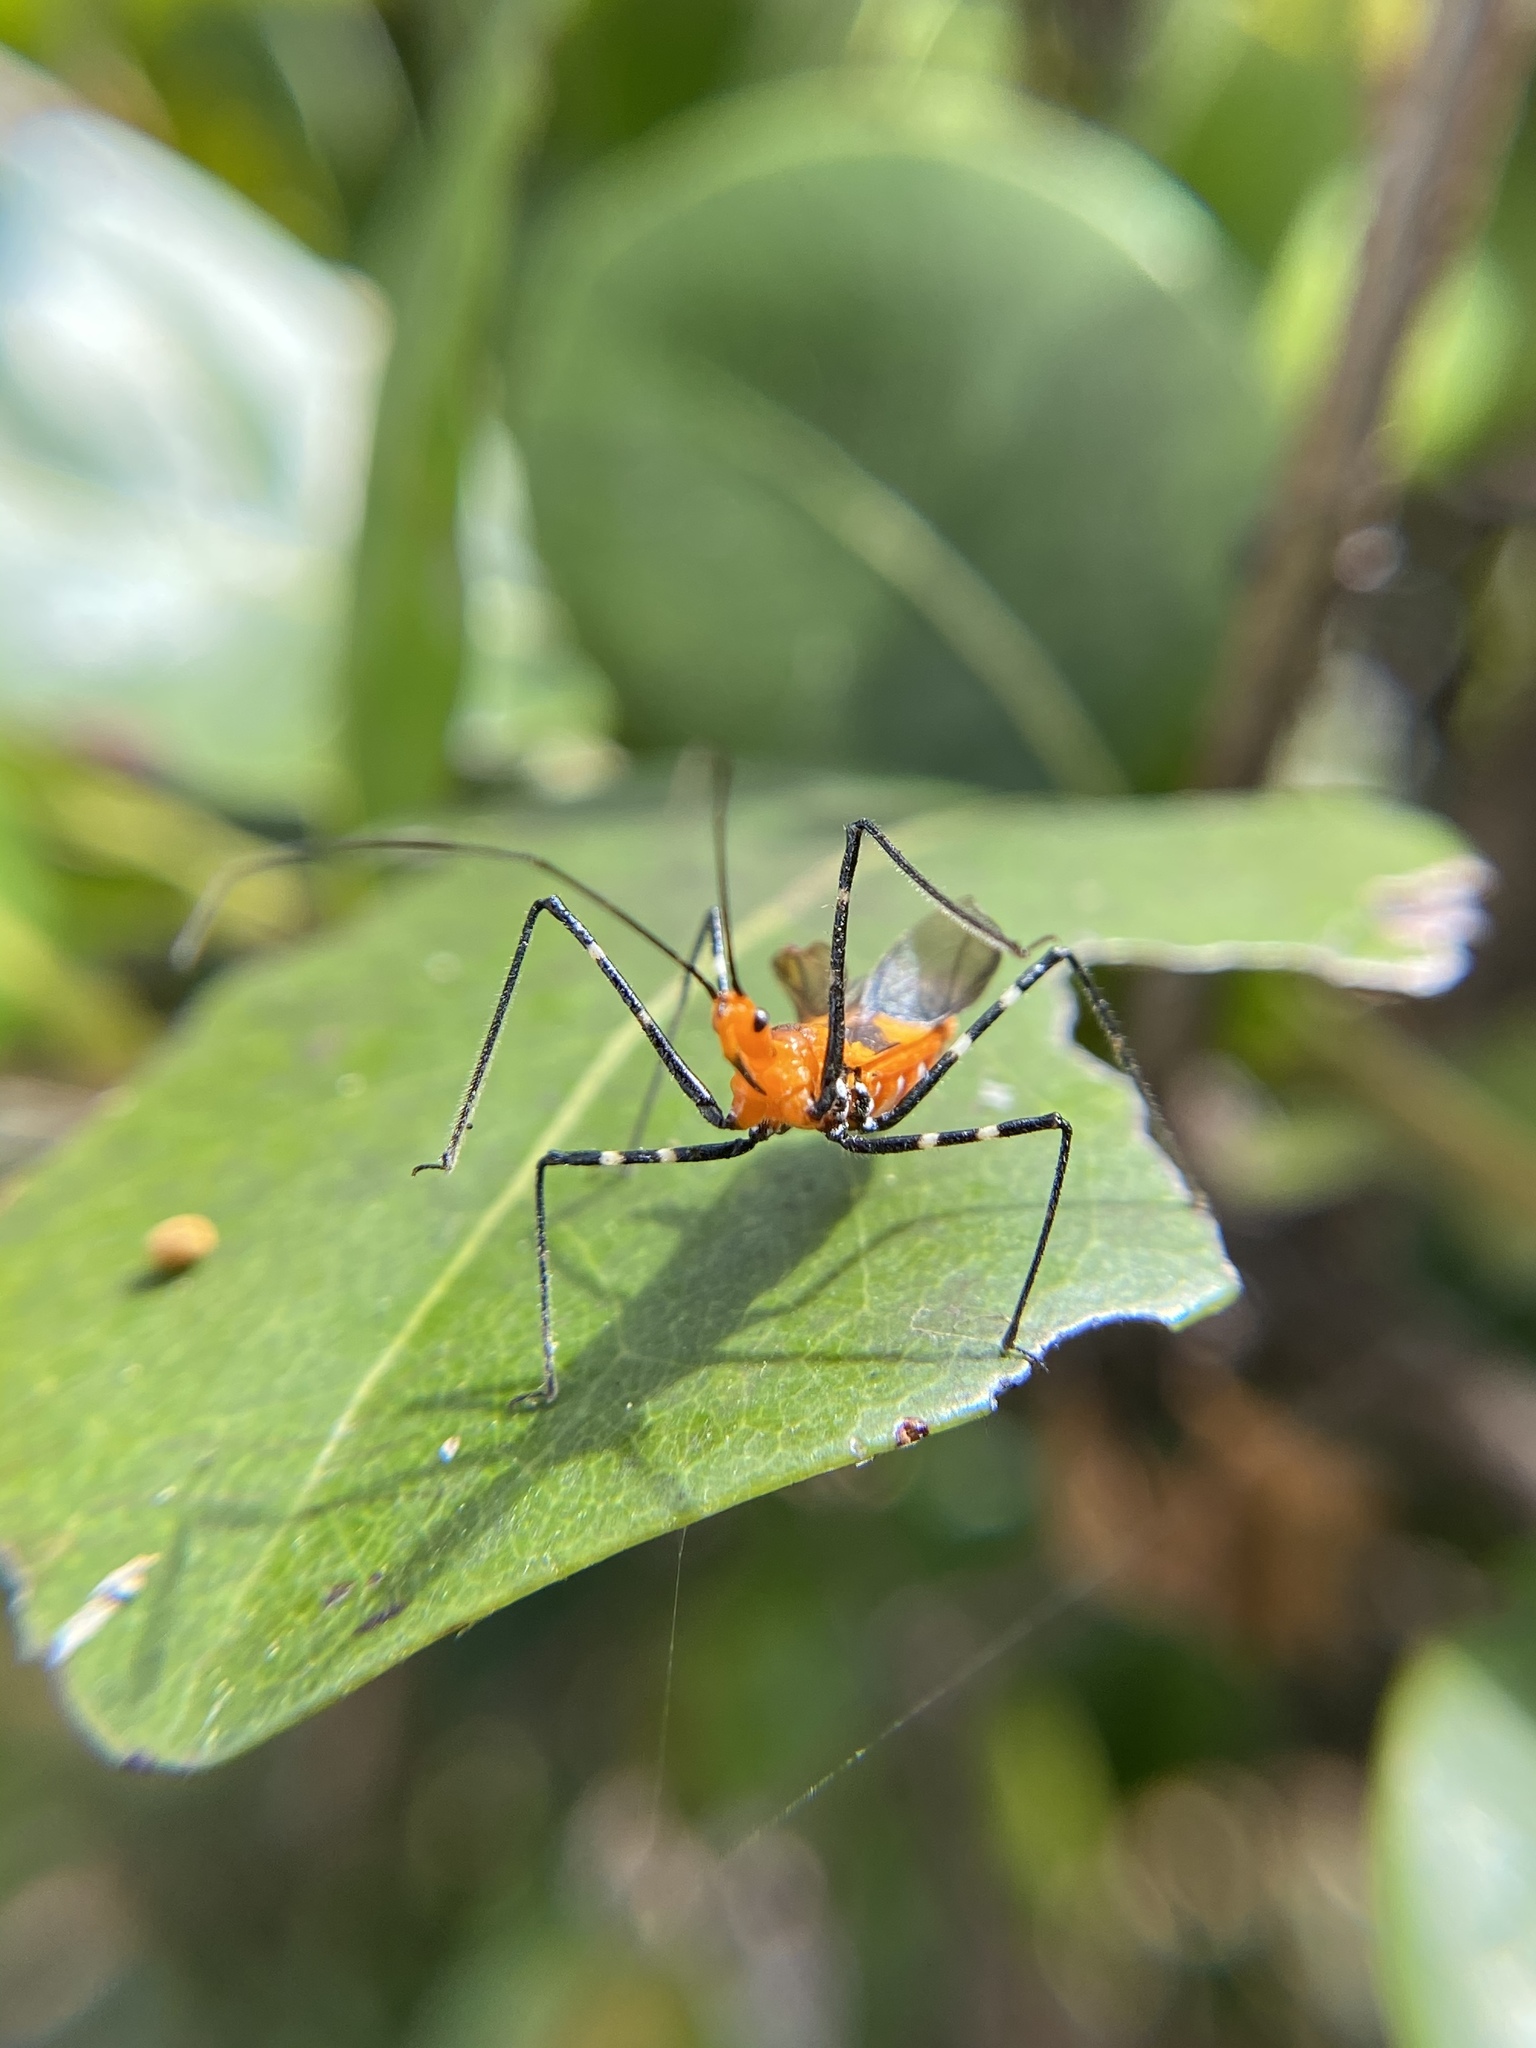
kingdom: Animalia
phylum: Arthropoda
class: Insecta
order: Hemiptera
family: Reduviidae
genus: Zelus
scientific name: Zelus longipes
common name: Milkweed assassin bug
